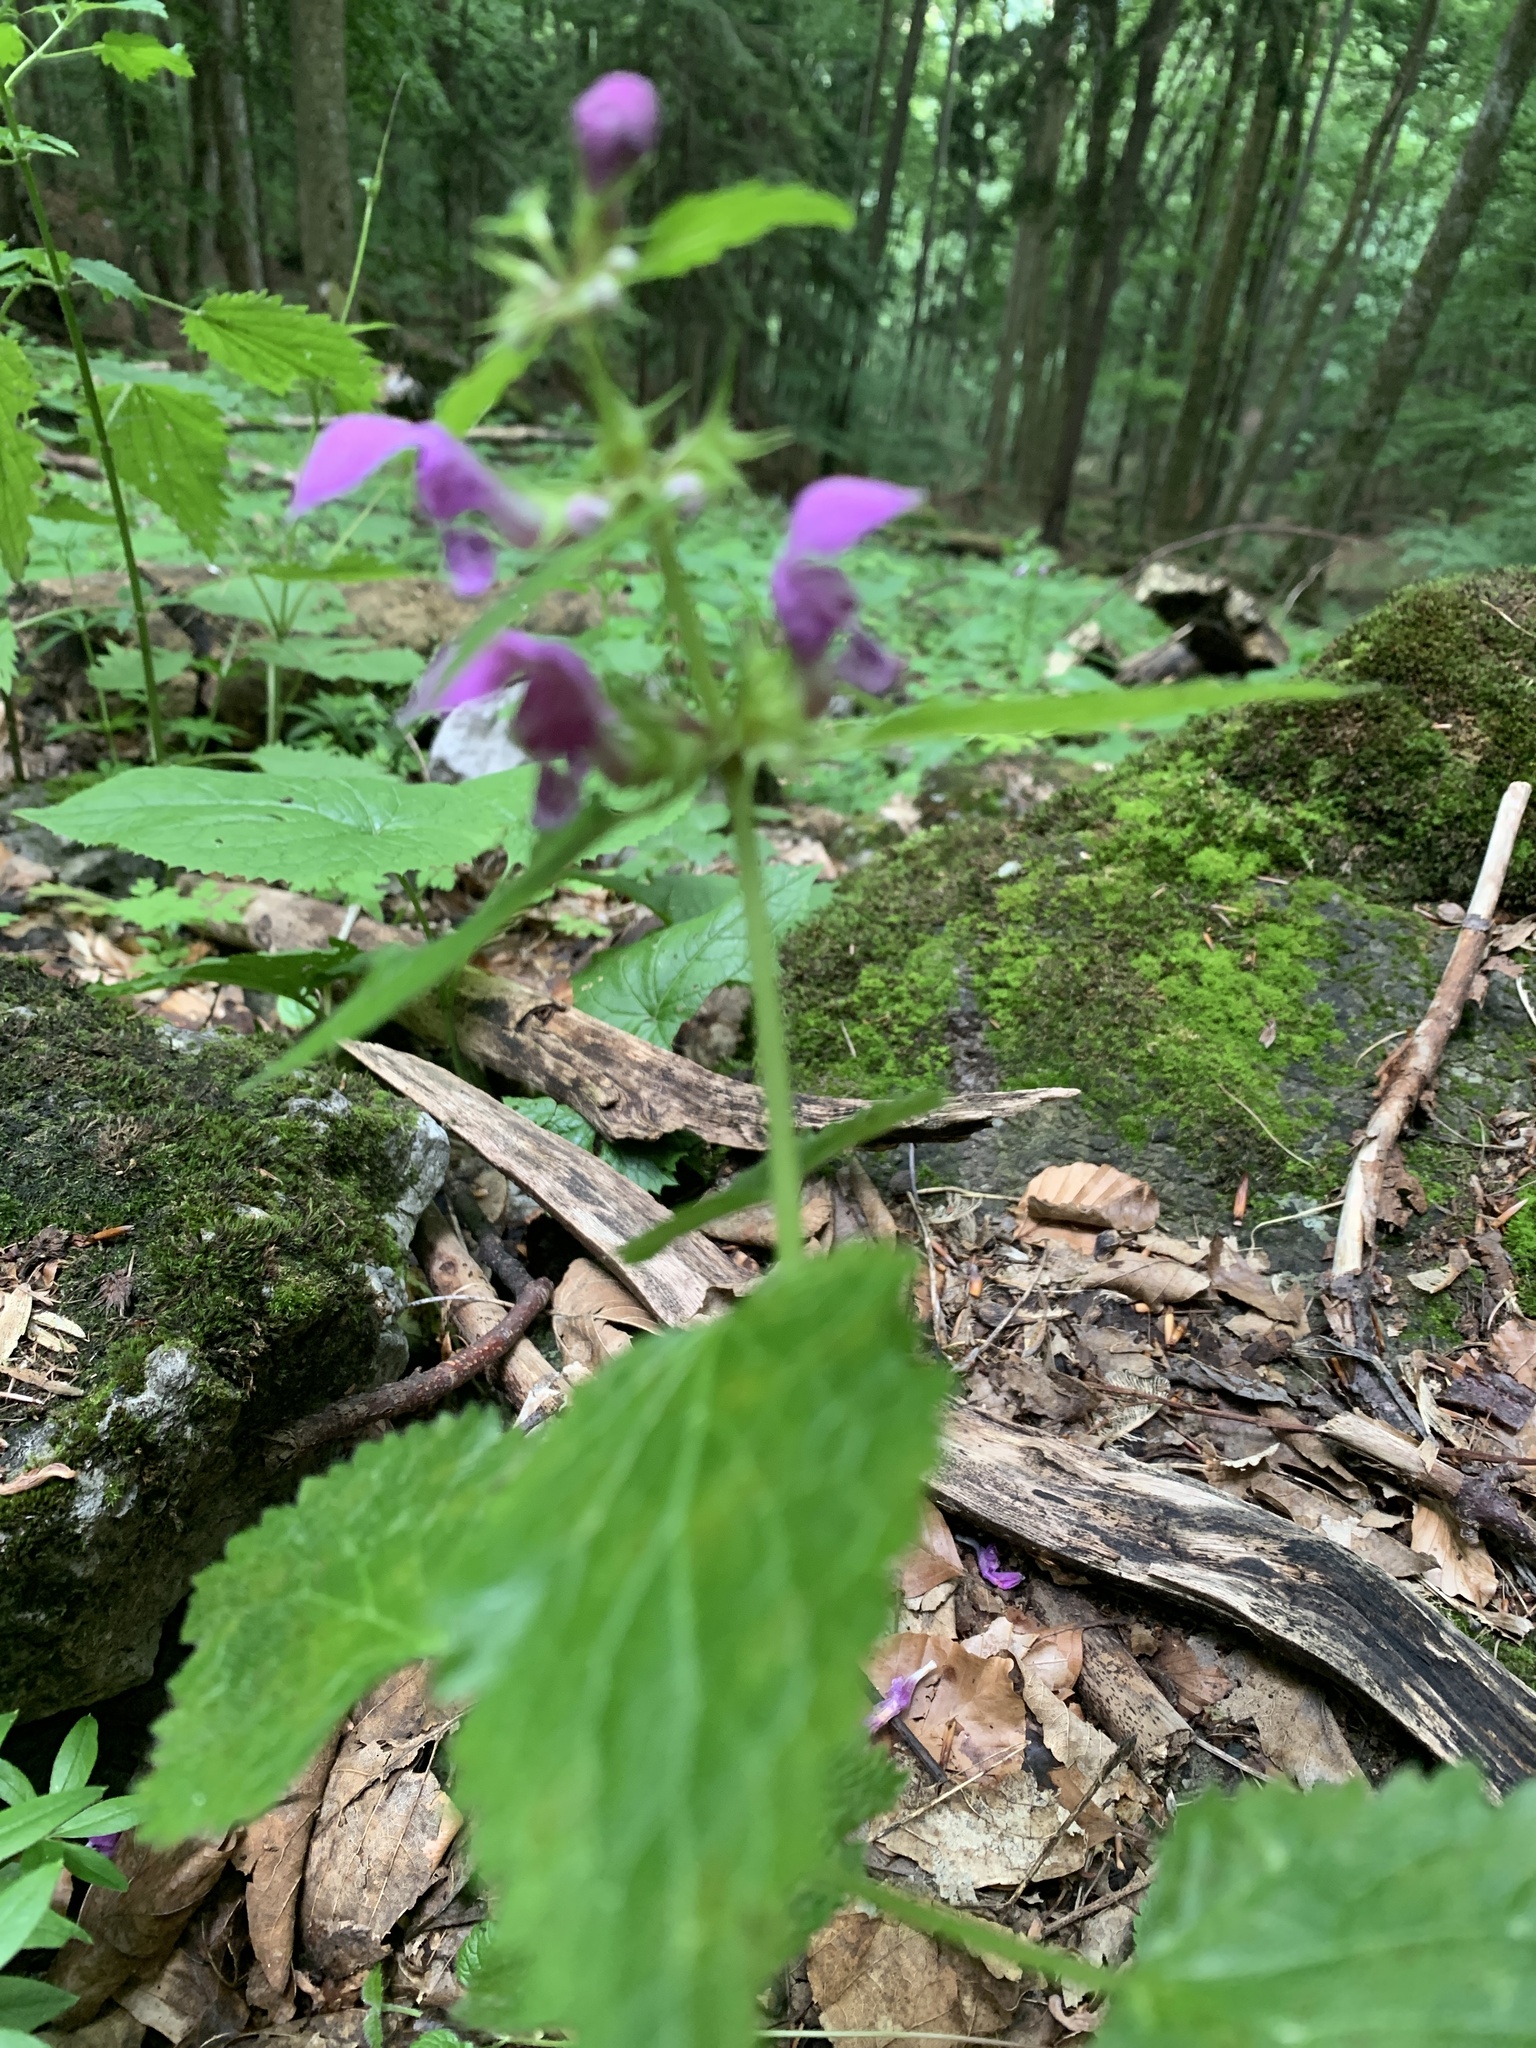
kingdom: Plantae
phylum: Tracheophyta
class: Magnoliopsida
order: Lamiales
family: Lamiaceae
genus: Lamium
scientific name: Lamium maculatum
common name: Spotted dead-nettle
